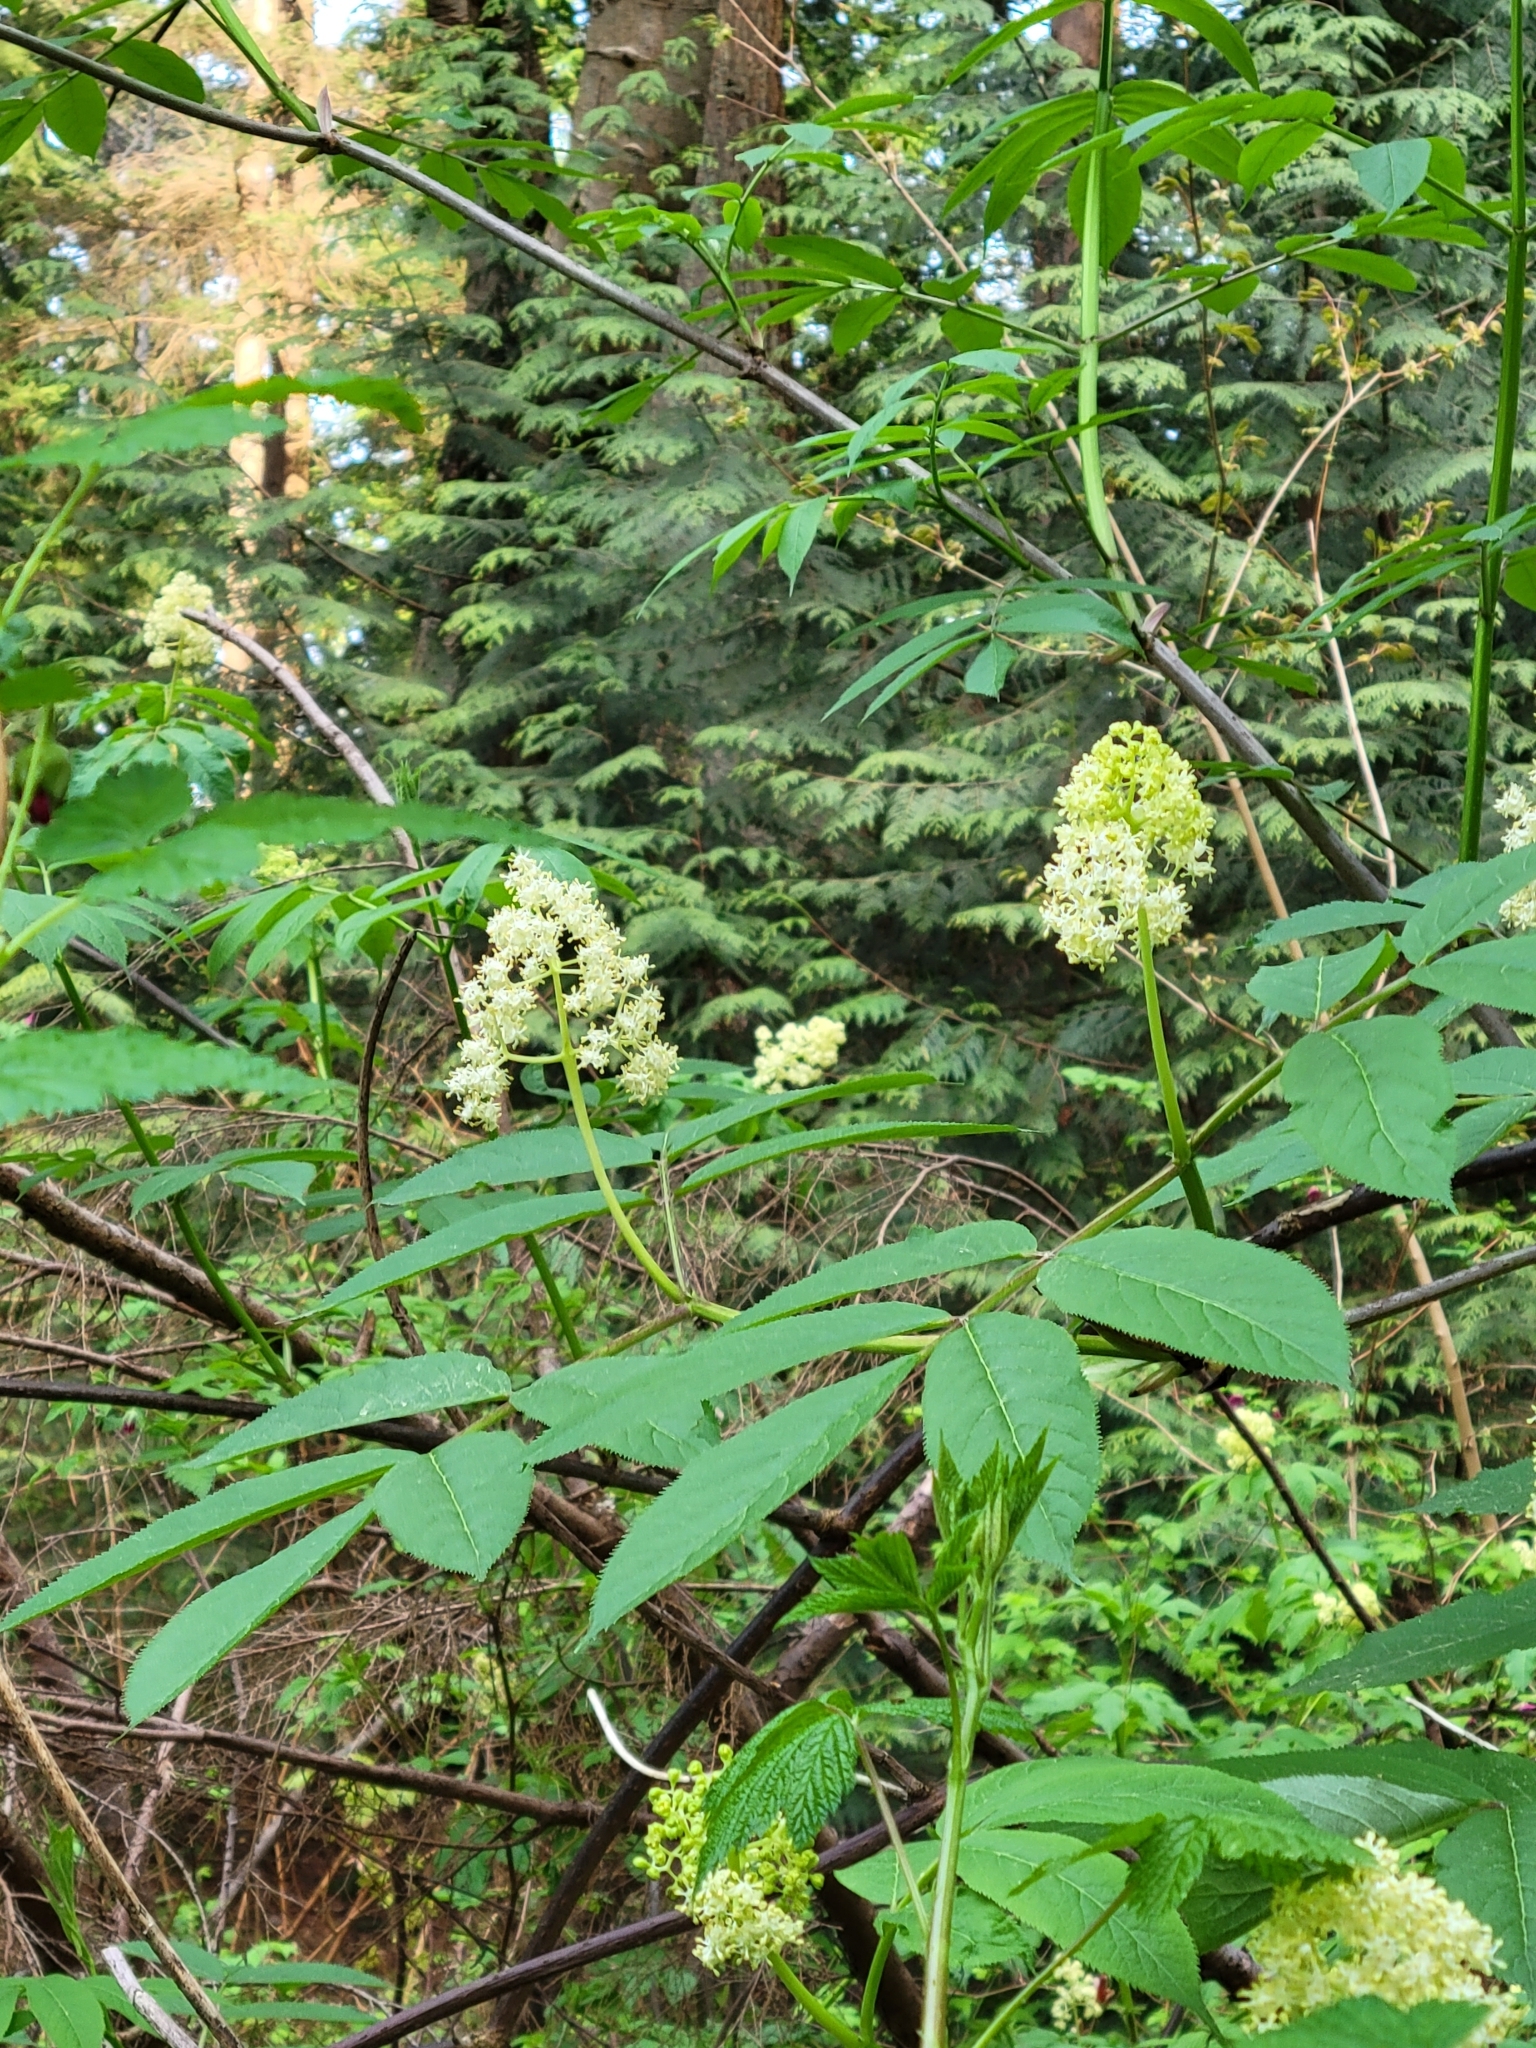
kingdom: Plantae
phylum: Tracheophyta
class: Magnoliopsida
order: Dipsacales
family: Viburnaceae
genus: Sambucus
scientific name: Sambucus racemosa
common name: Red-berried elder
